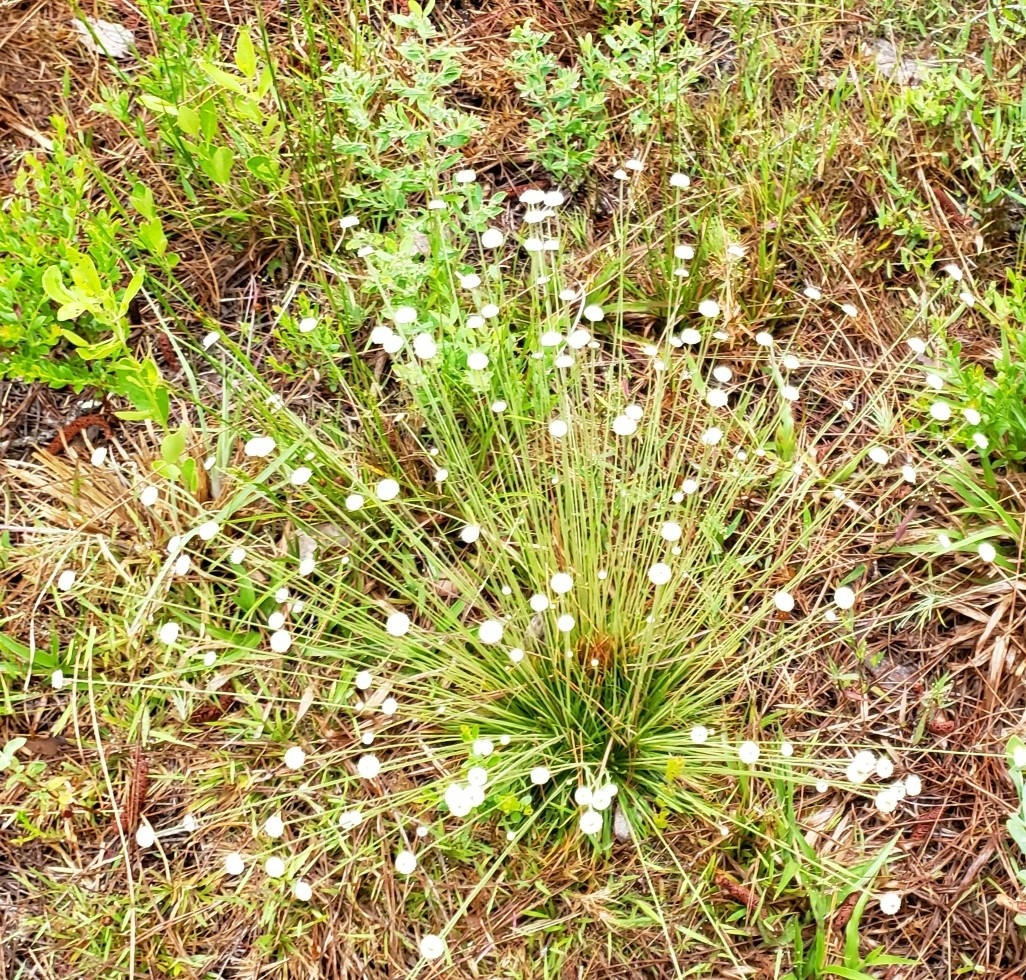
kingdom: Plantae
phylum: Tracheophyta
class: Liliopsida
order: Poales
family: Eriocaulaceae
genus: Syngonanthus
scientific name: Syngonanthus flavidulus
